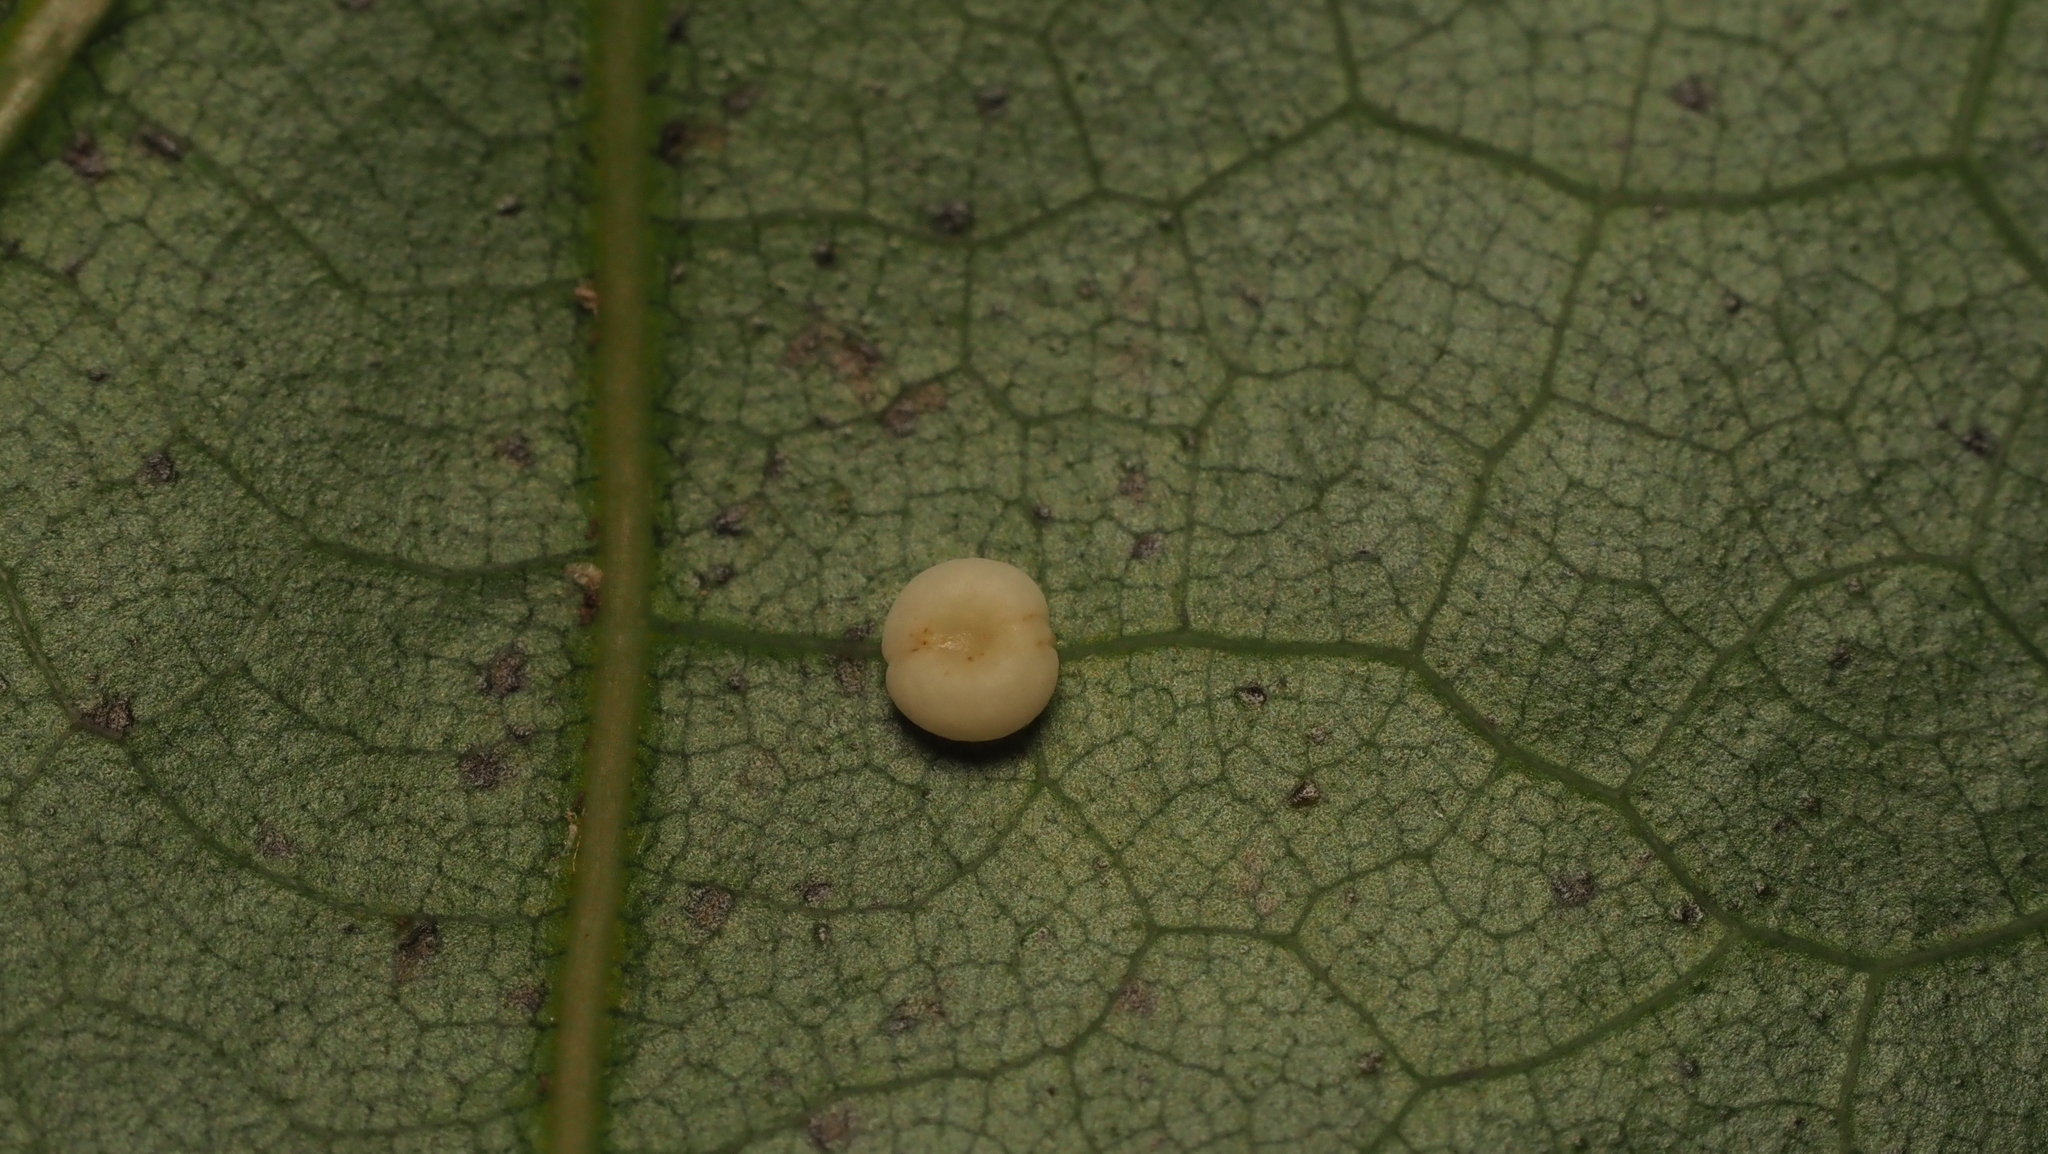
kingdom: Animalia
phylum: Arthropoda
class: Insecta
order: Hymenoptera
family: Cynipidae
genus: Zopheroteras
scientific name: Zopheroteras
